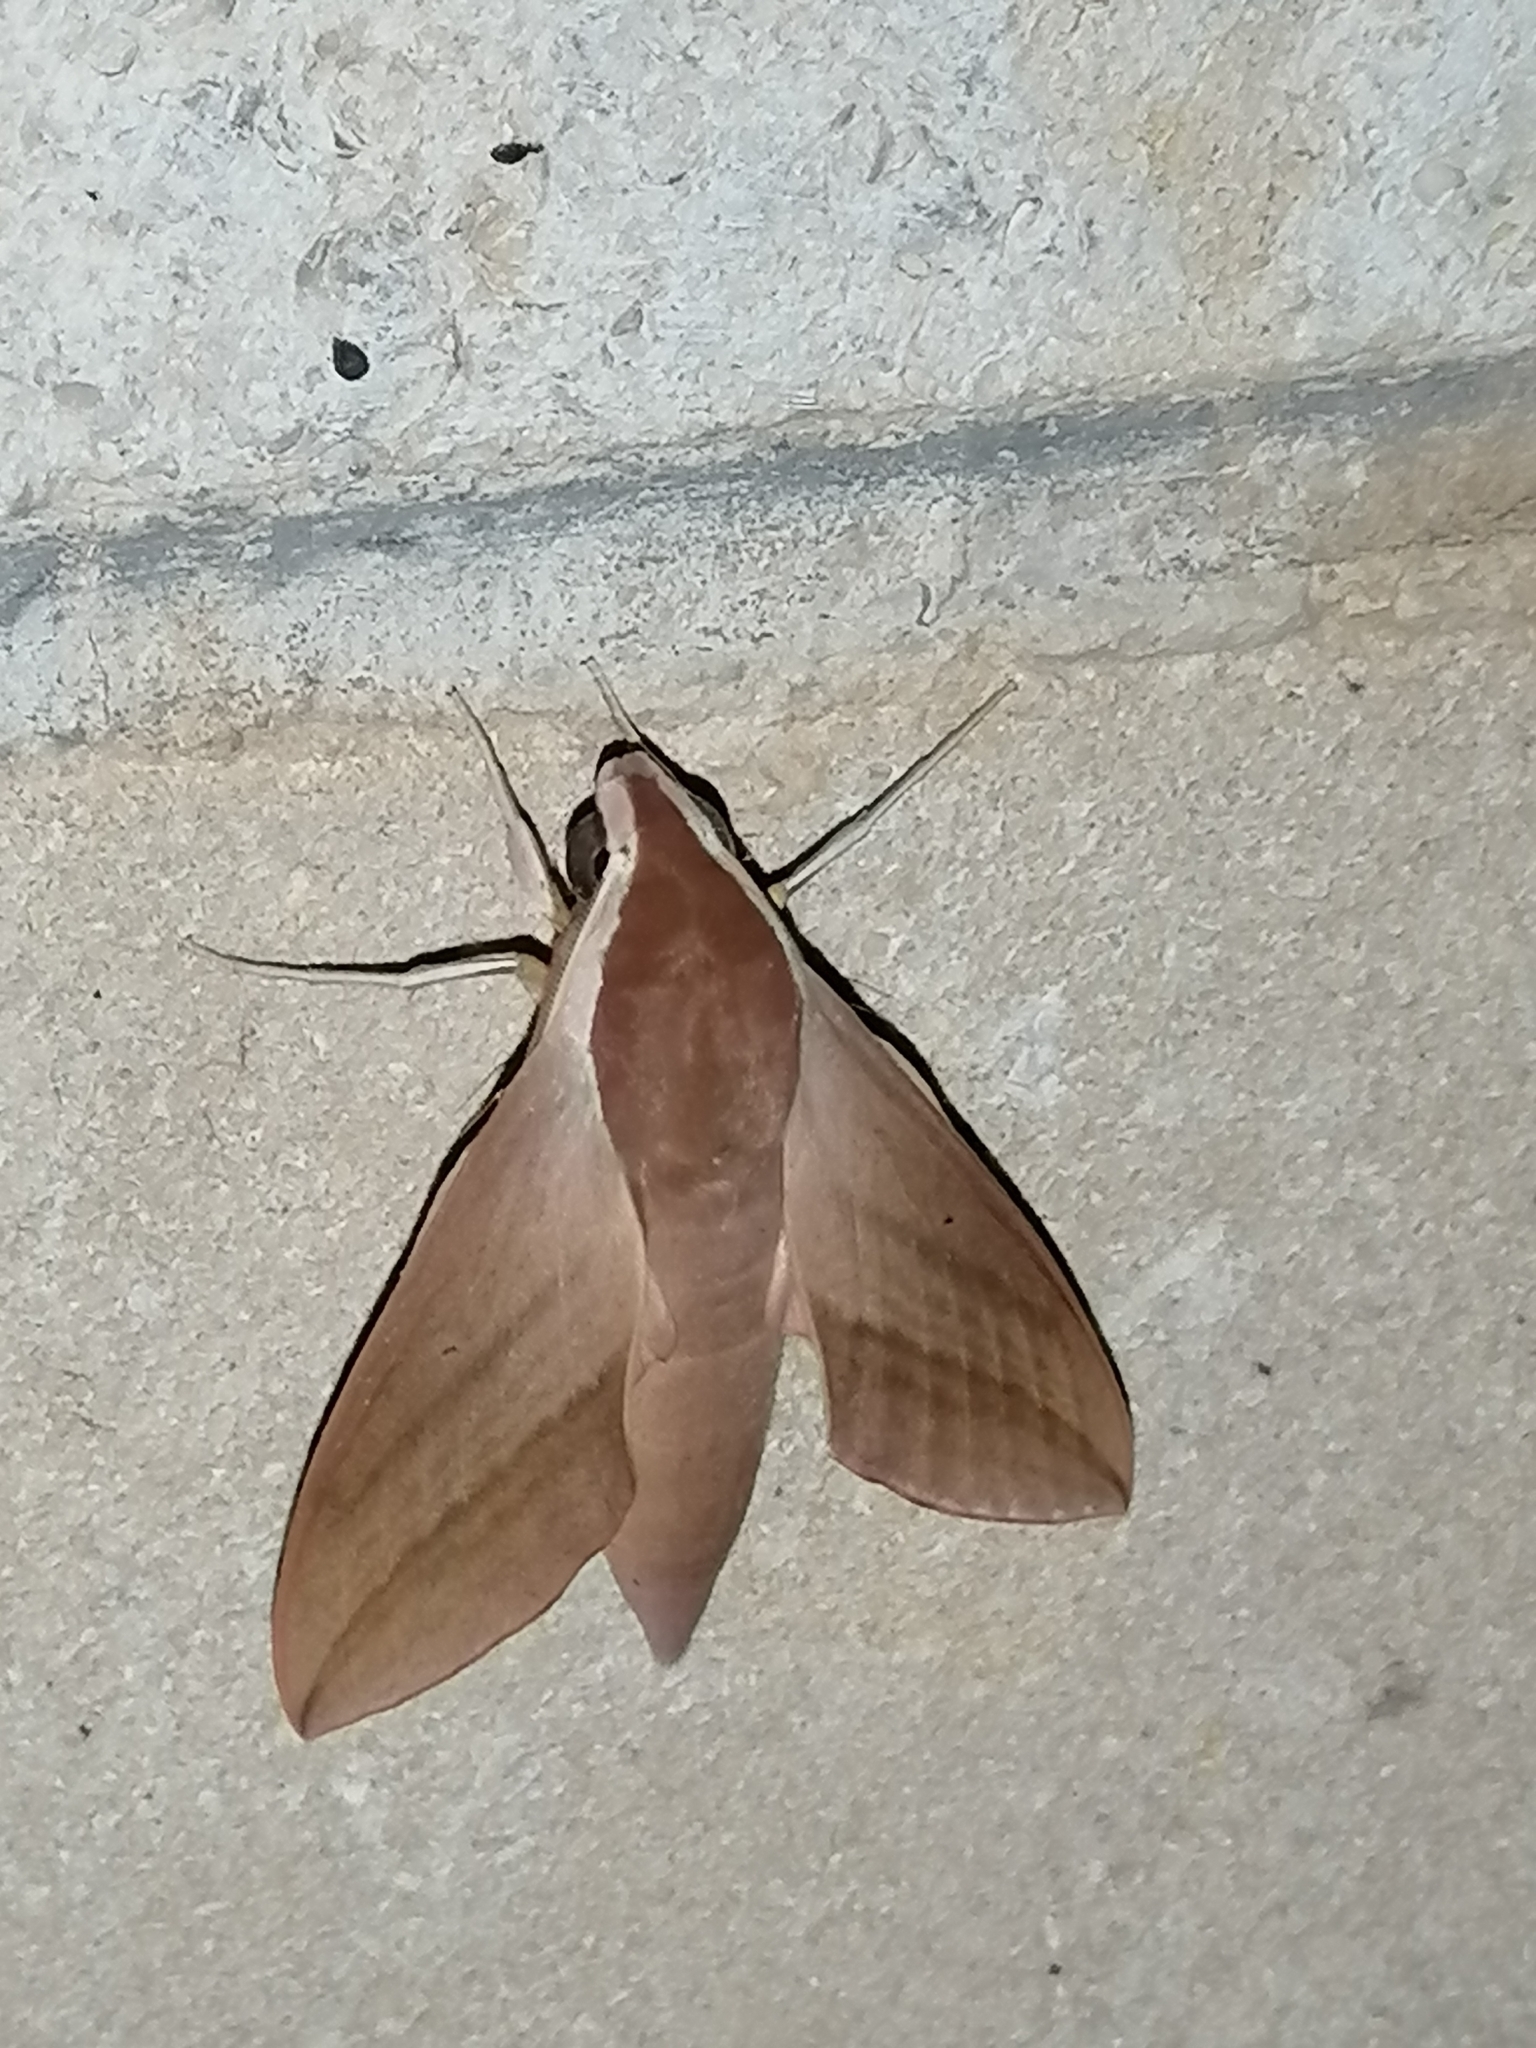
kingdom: Animalia
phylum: Arthropoda
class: Insecta
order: Lepidoptera
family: Sphingidae
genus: Theretra
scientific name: Theretra alecto
